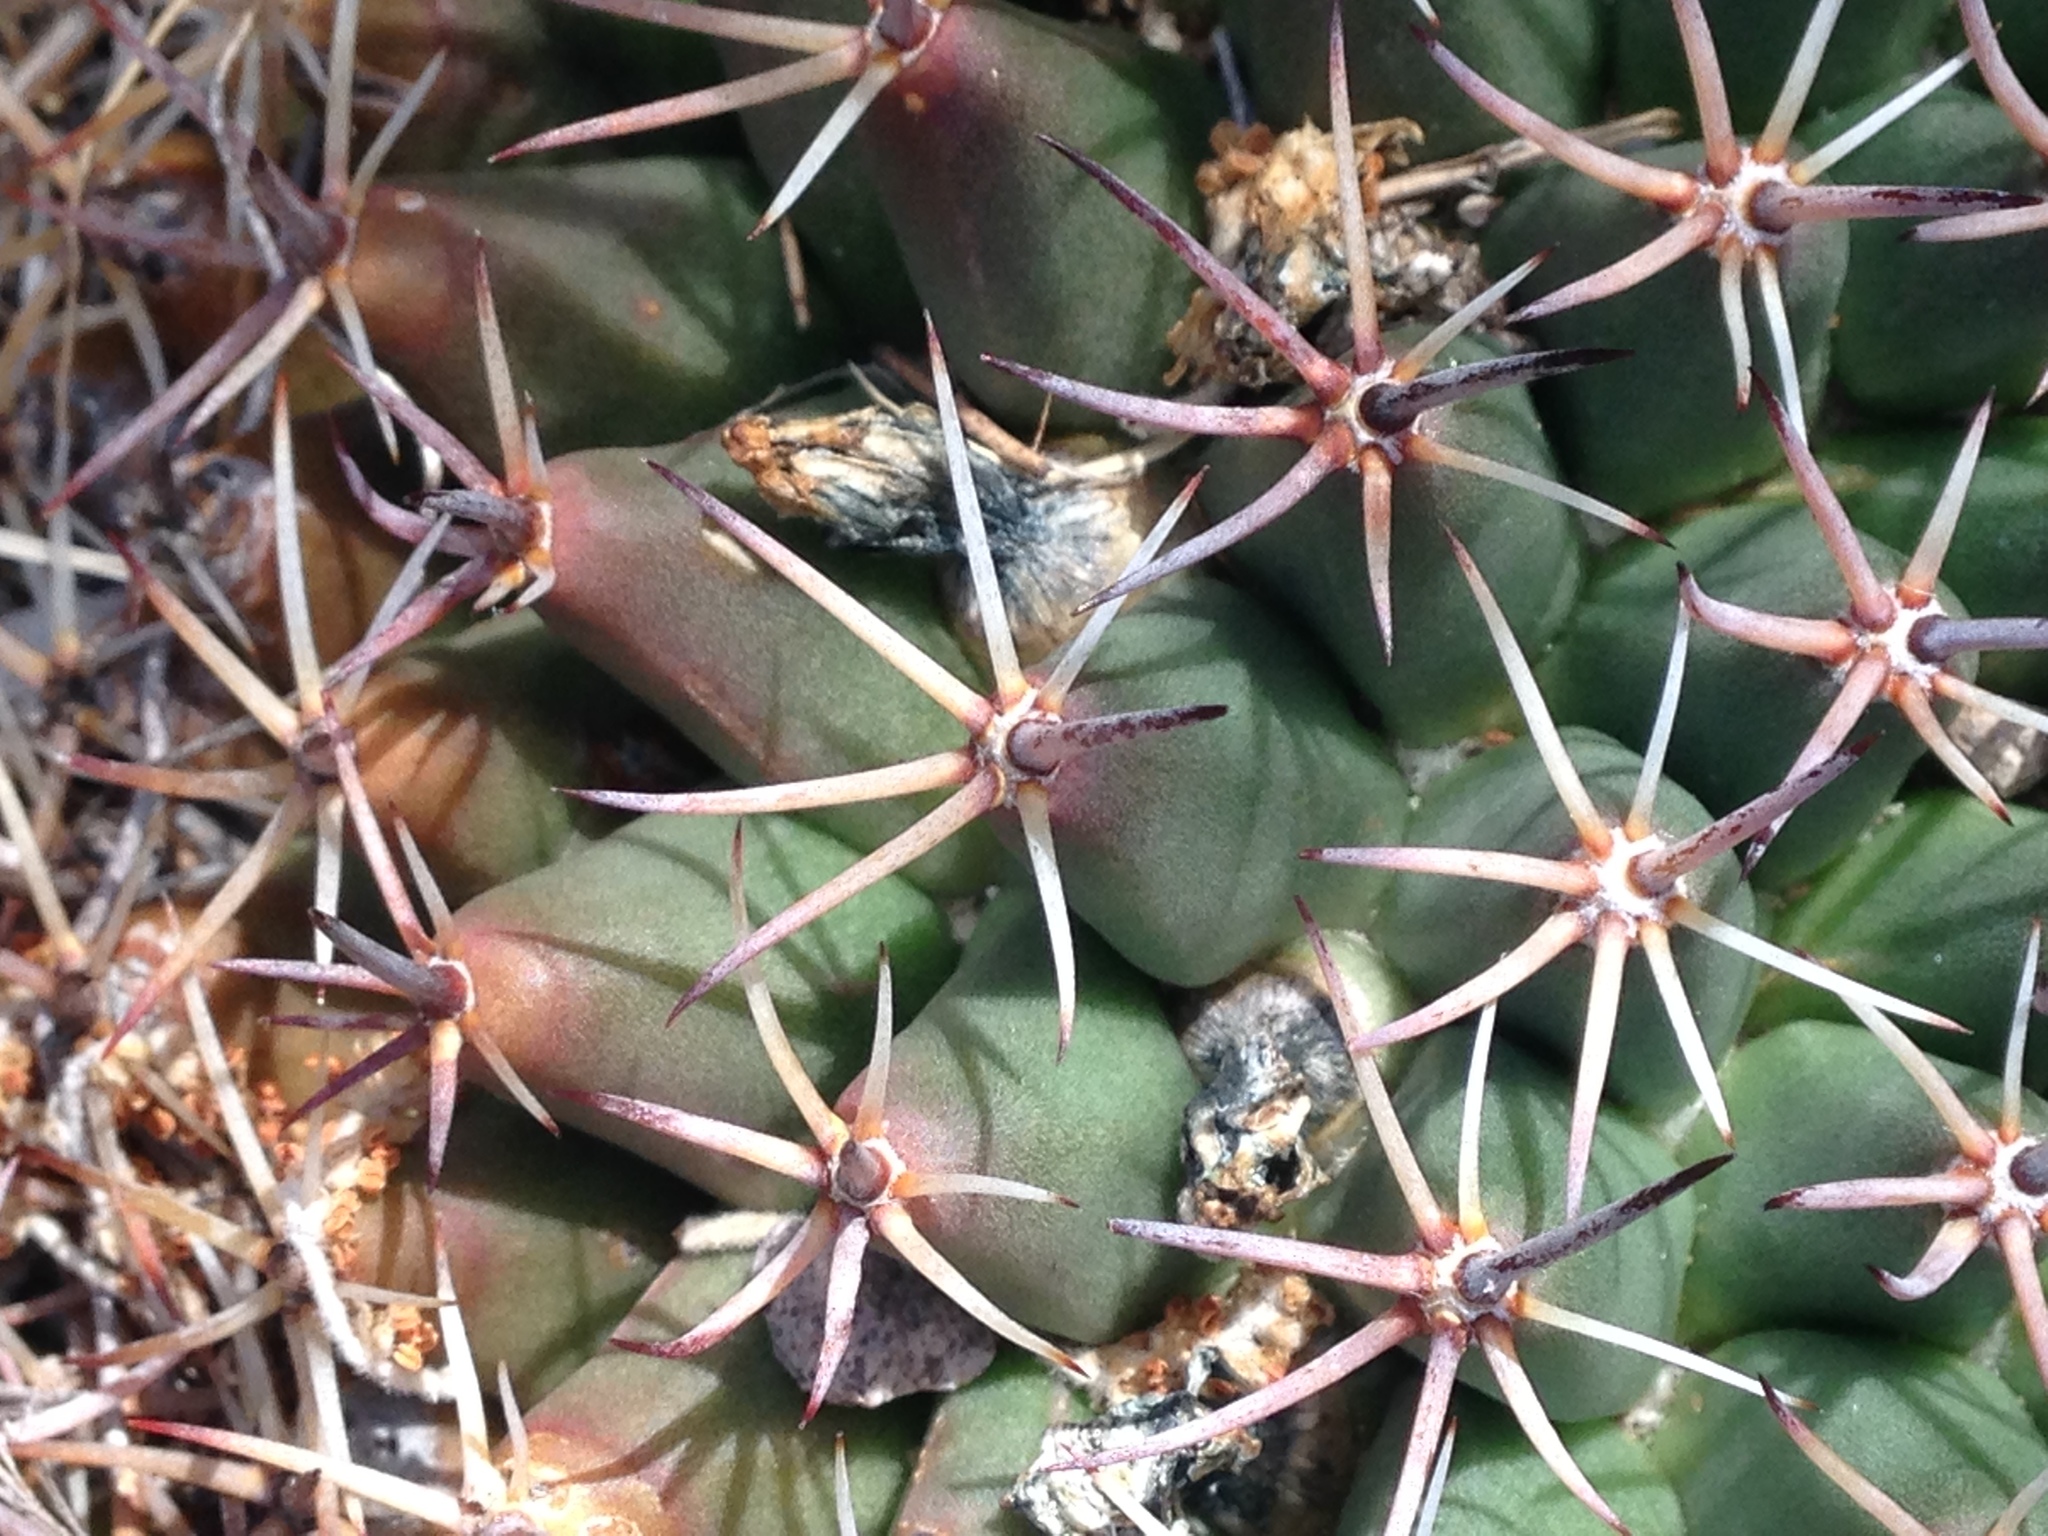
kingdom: Plantae
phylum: Tracheophyta
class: Magnoliopsida
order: Caryophyllales
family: Cactaceae
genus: Mammillaria
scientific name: Mammillaria heyderi
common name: Little nipple cactus
